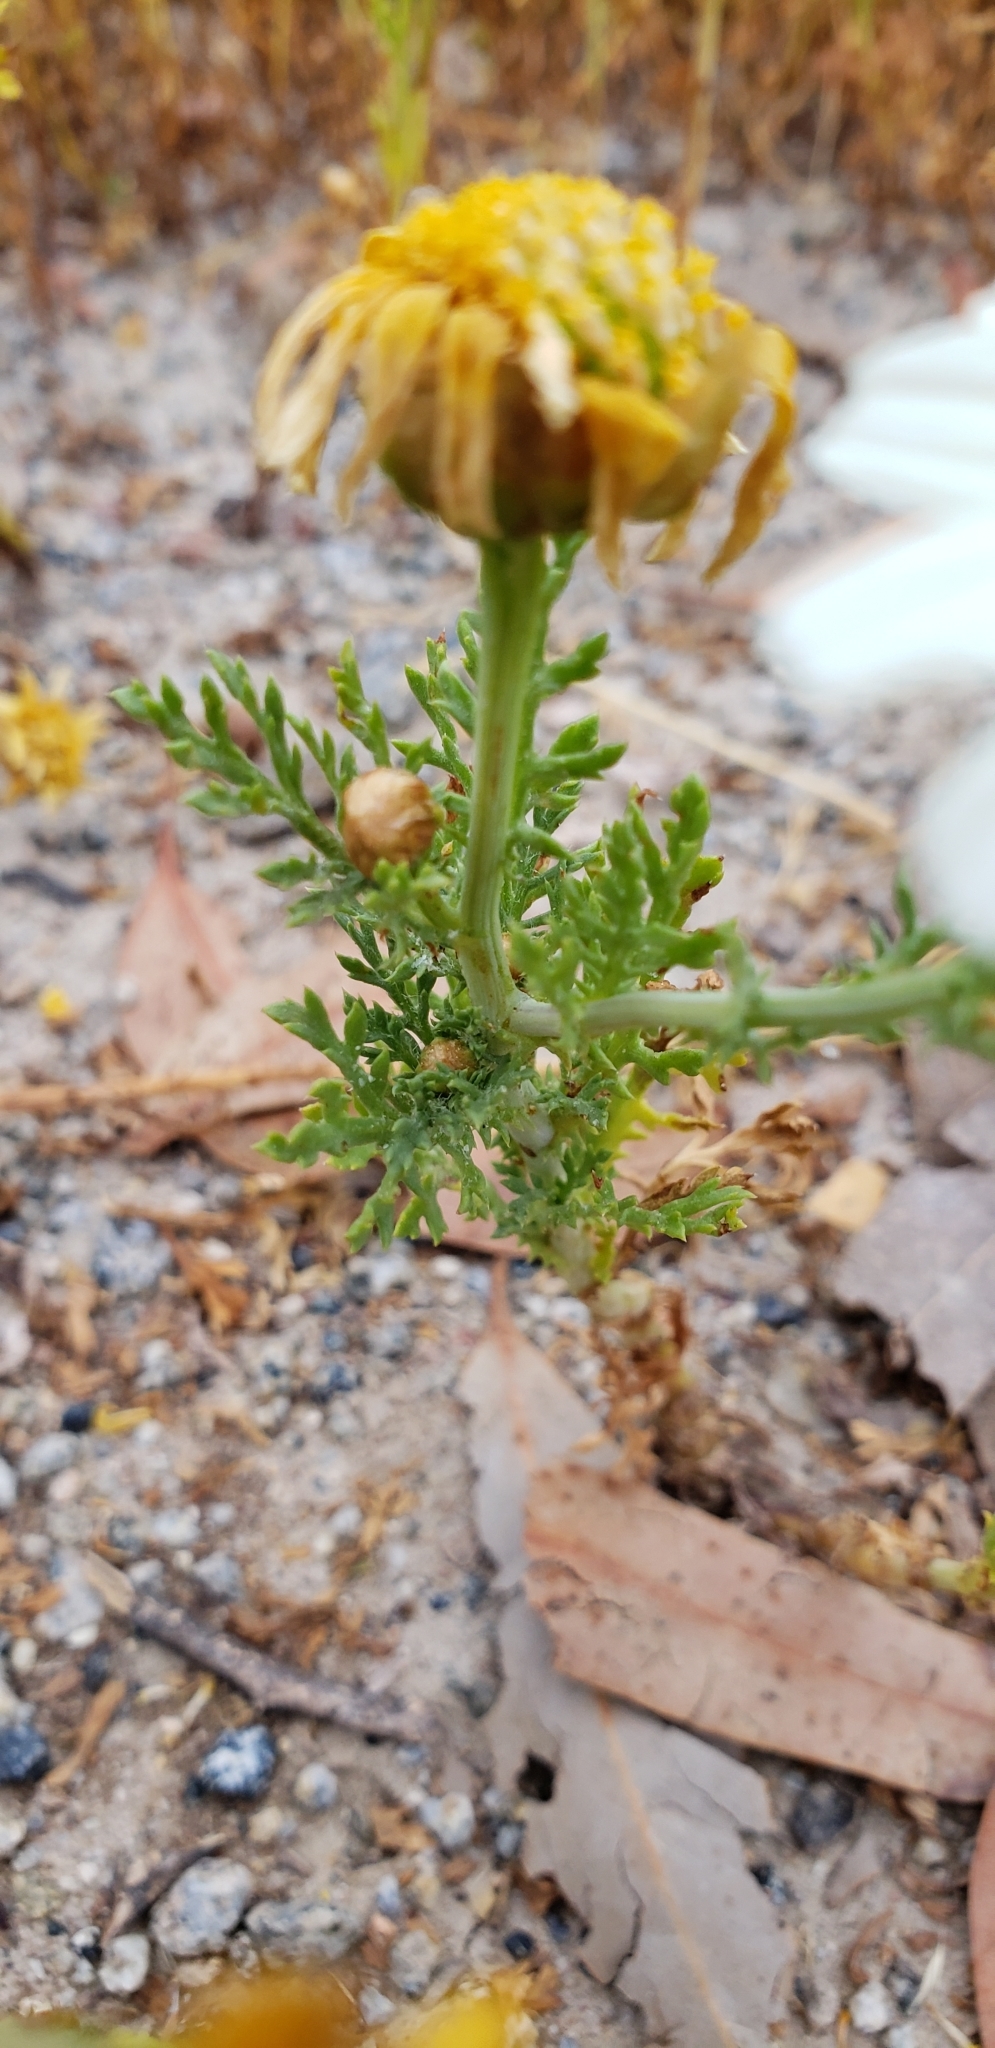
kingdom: Plantae
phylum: Tracheophyta
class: Magnoliopsida
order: Asterales
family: Asteraceae
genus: Glebionis
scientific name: Glebionis coronaria
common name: Crowndaisy
